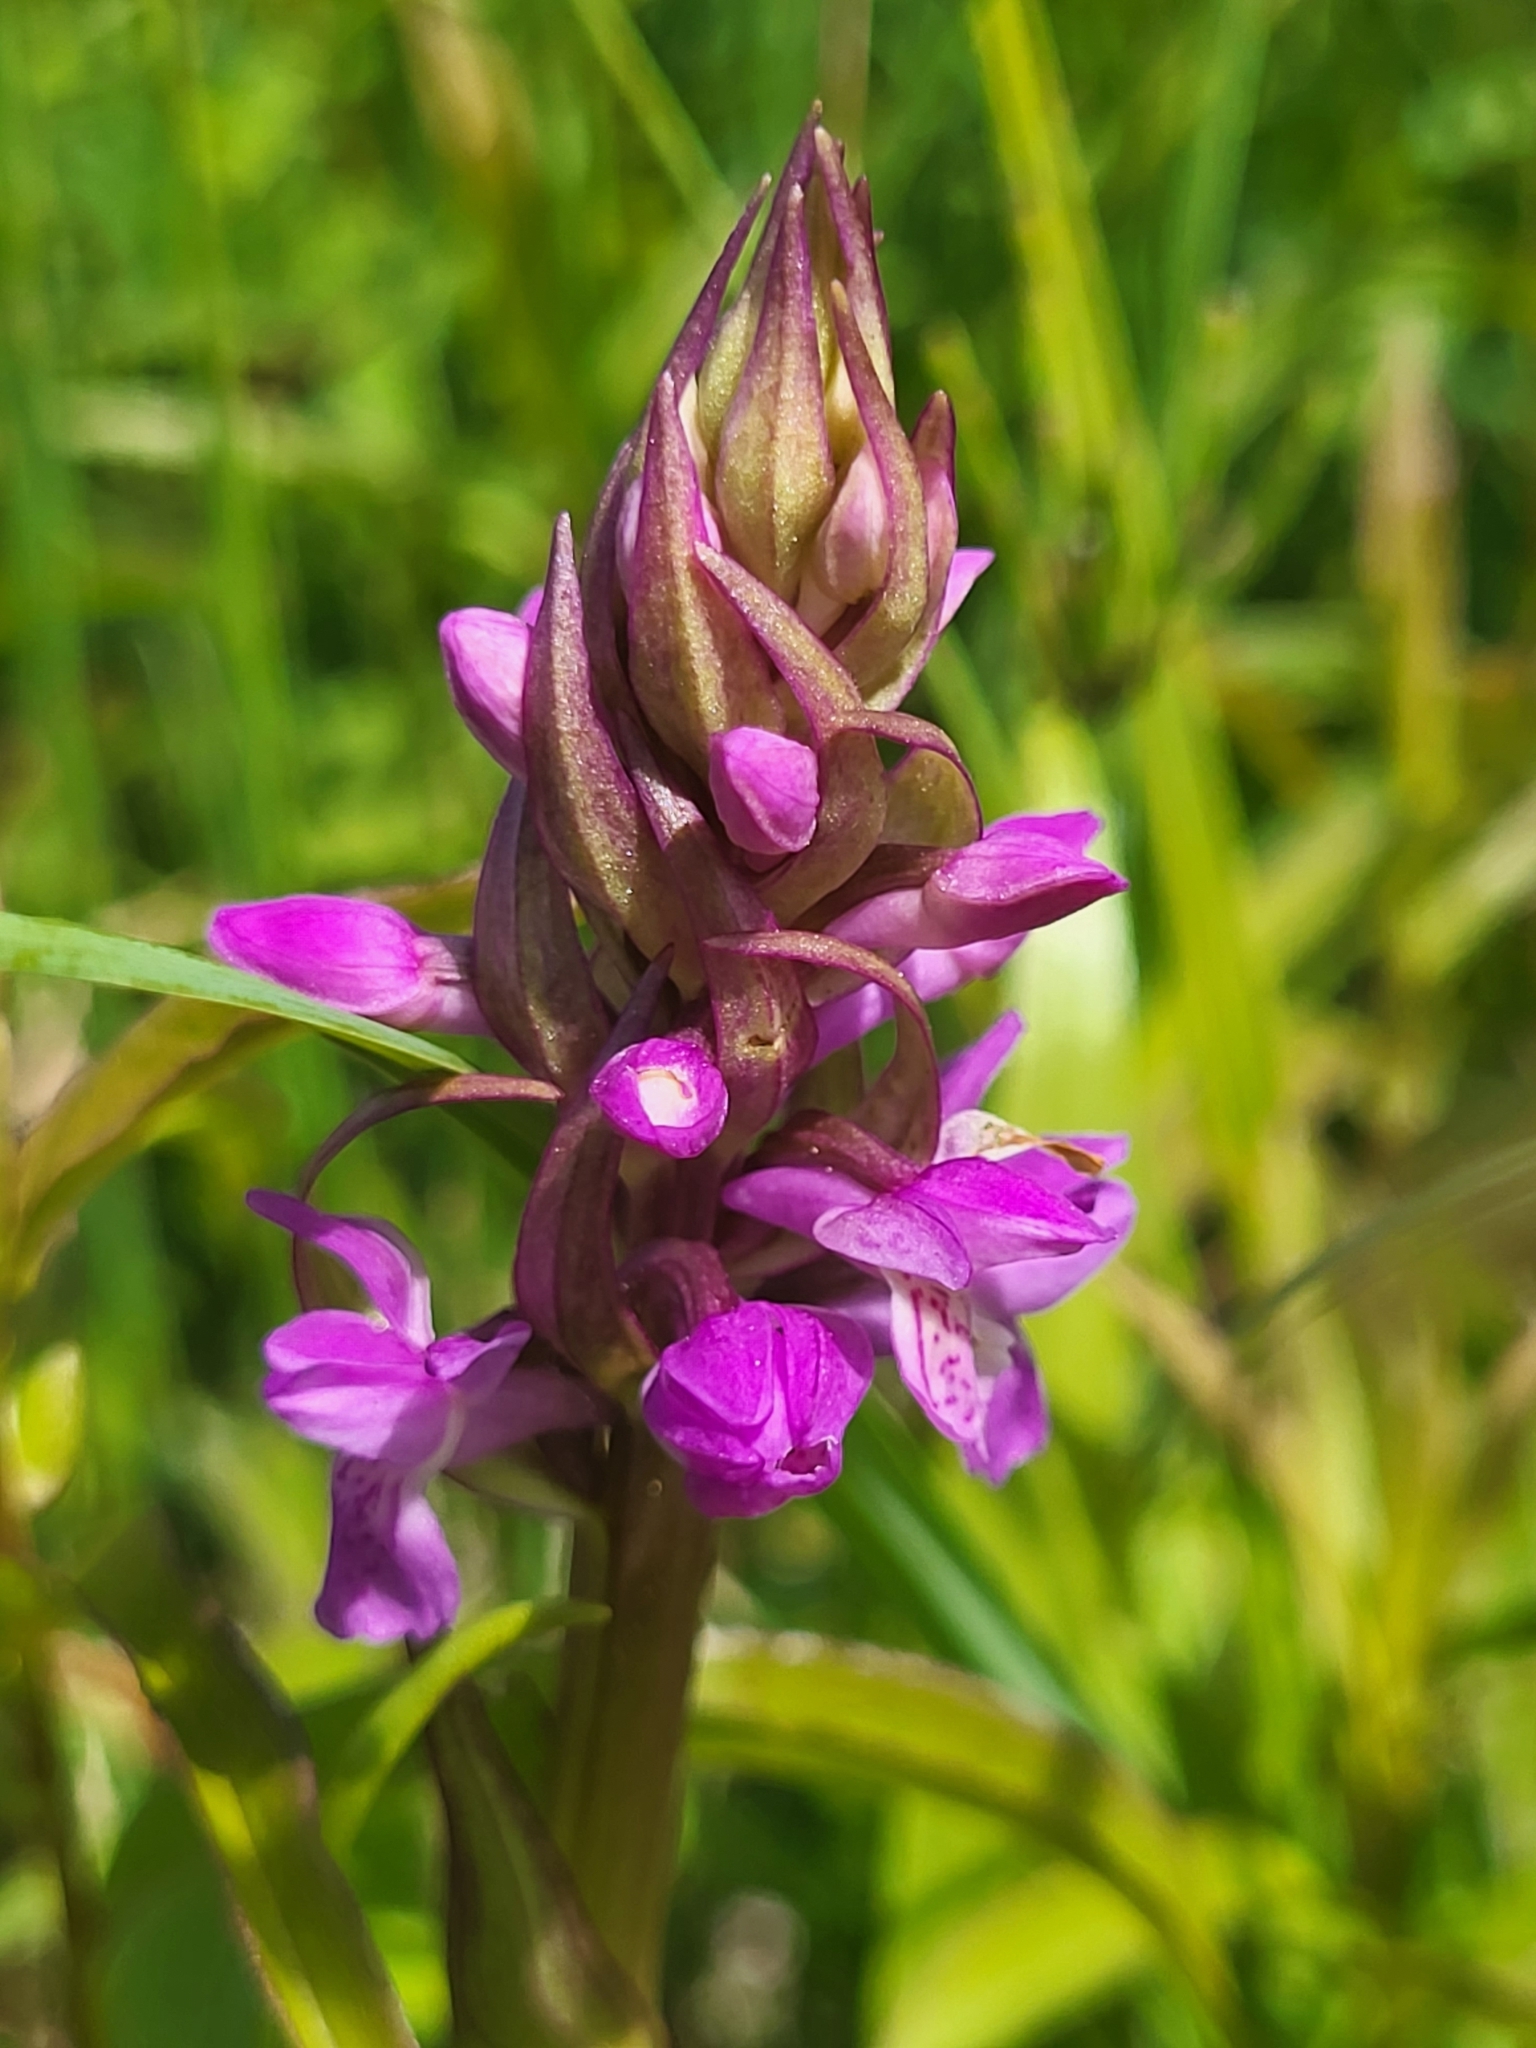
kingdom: Plantae
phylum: Tracheophyta
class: Liliopsida
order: Asparagales
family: Orchidaceae
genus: Dactylorhiza
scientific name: Dactylorhiza incarnata
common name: Early marsh-orchid
